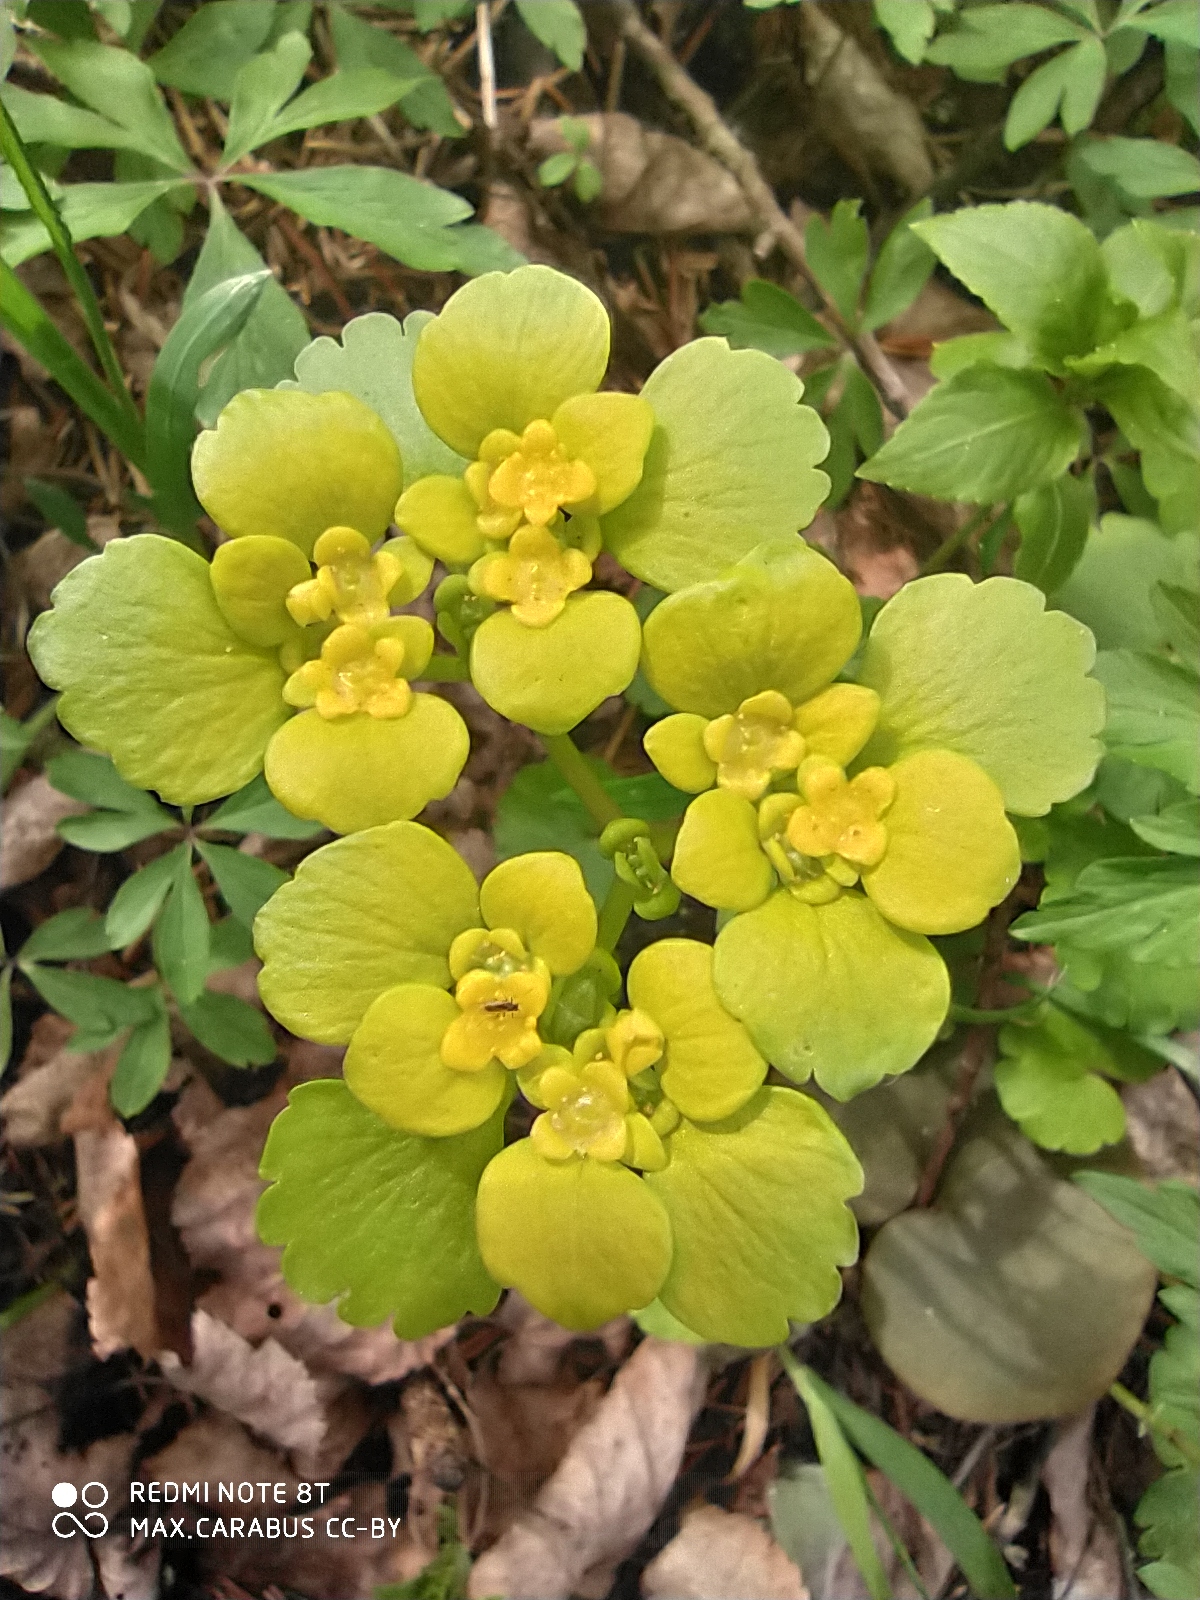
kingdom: Plantae
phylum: Tracheophyta
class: Magnoliopsida
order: Saxifragales
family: Saxifragaceae
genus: Chrysosplenium
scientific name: Chrysosplenium alternifolium
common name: Alternate-leaved golden-saxifrage
